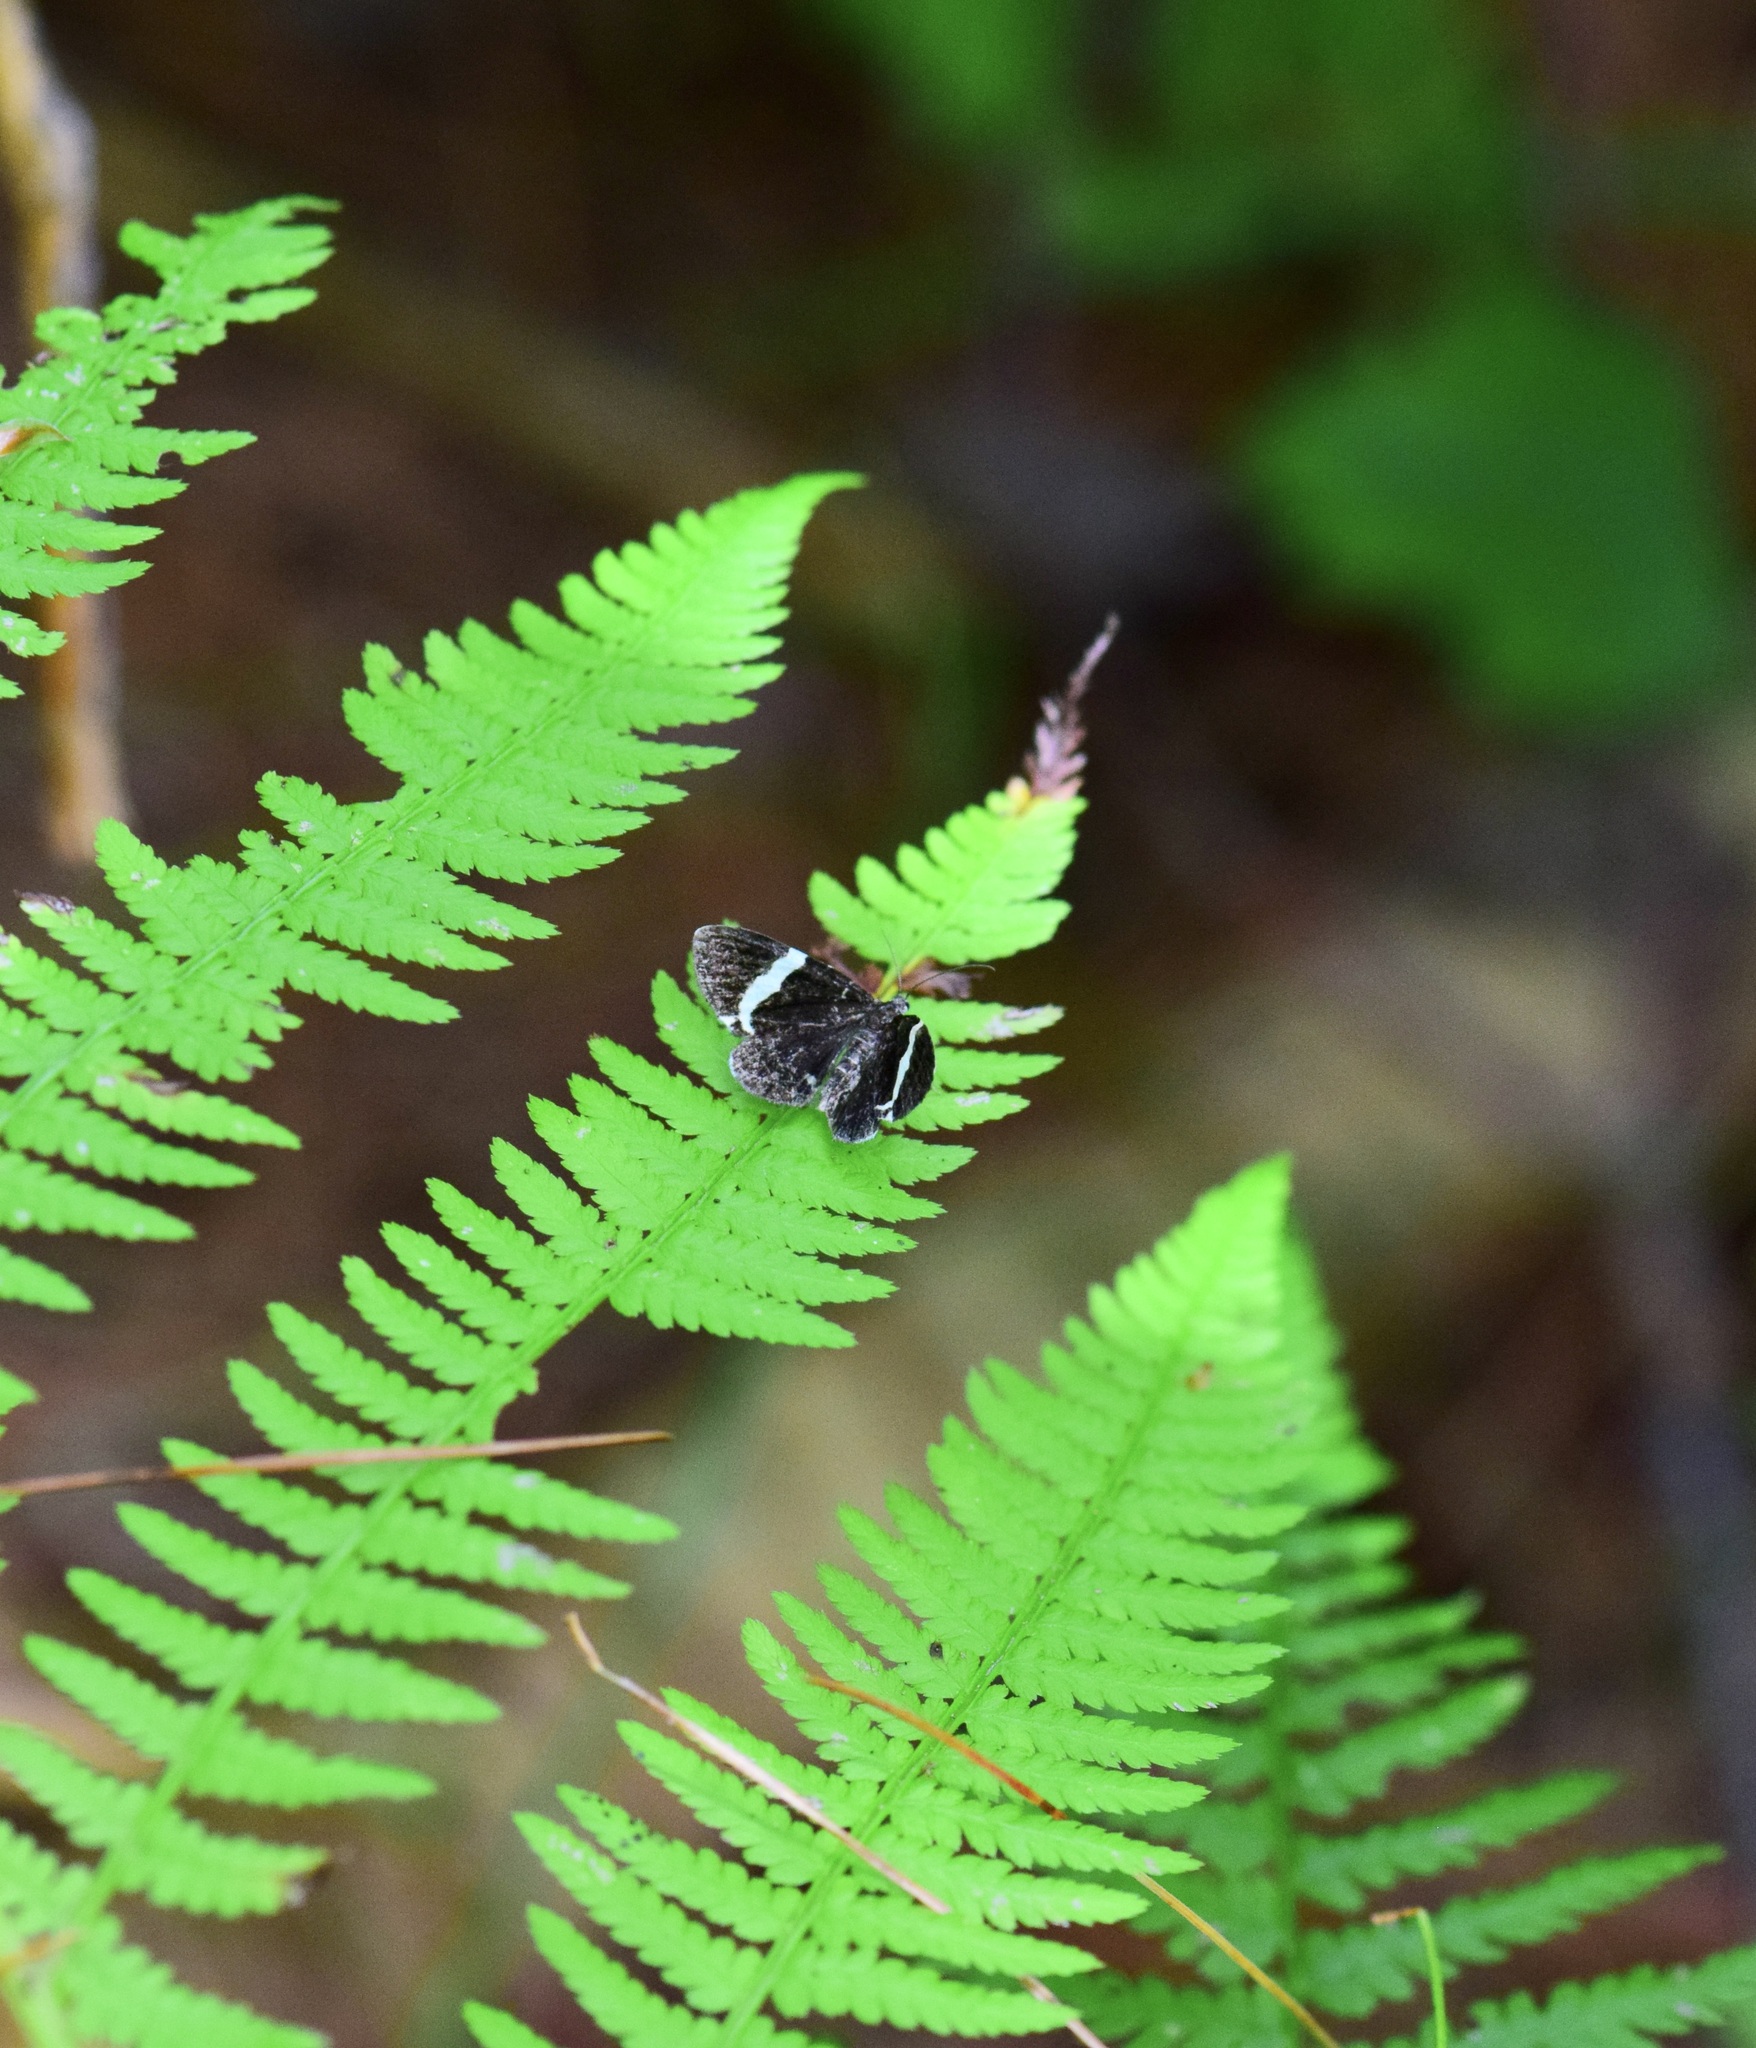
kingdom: Animalia
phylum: Arthropoda
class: Insecta
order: Lepidoptera
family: Geometridae
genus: Trichodezia
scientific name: Trichodezia albovittata
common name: White striped black
